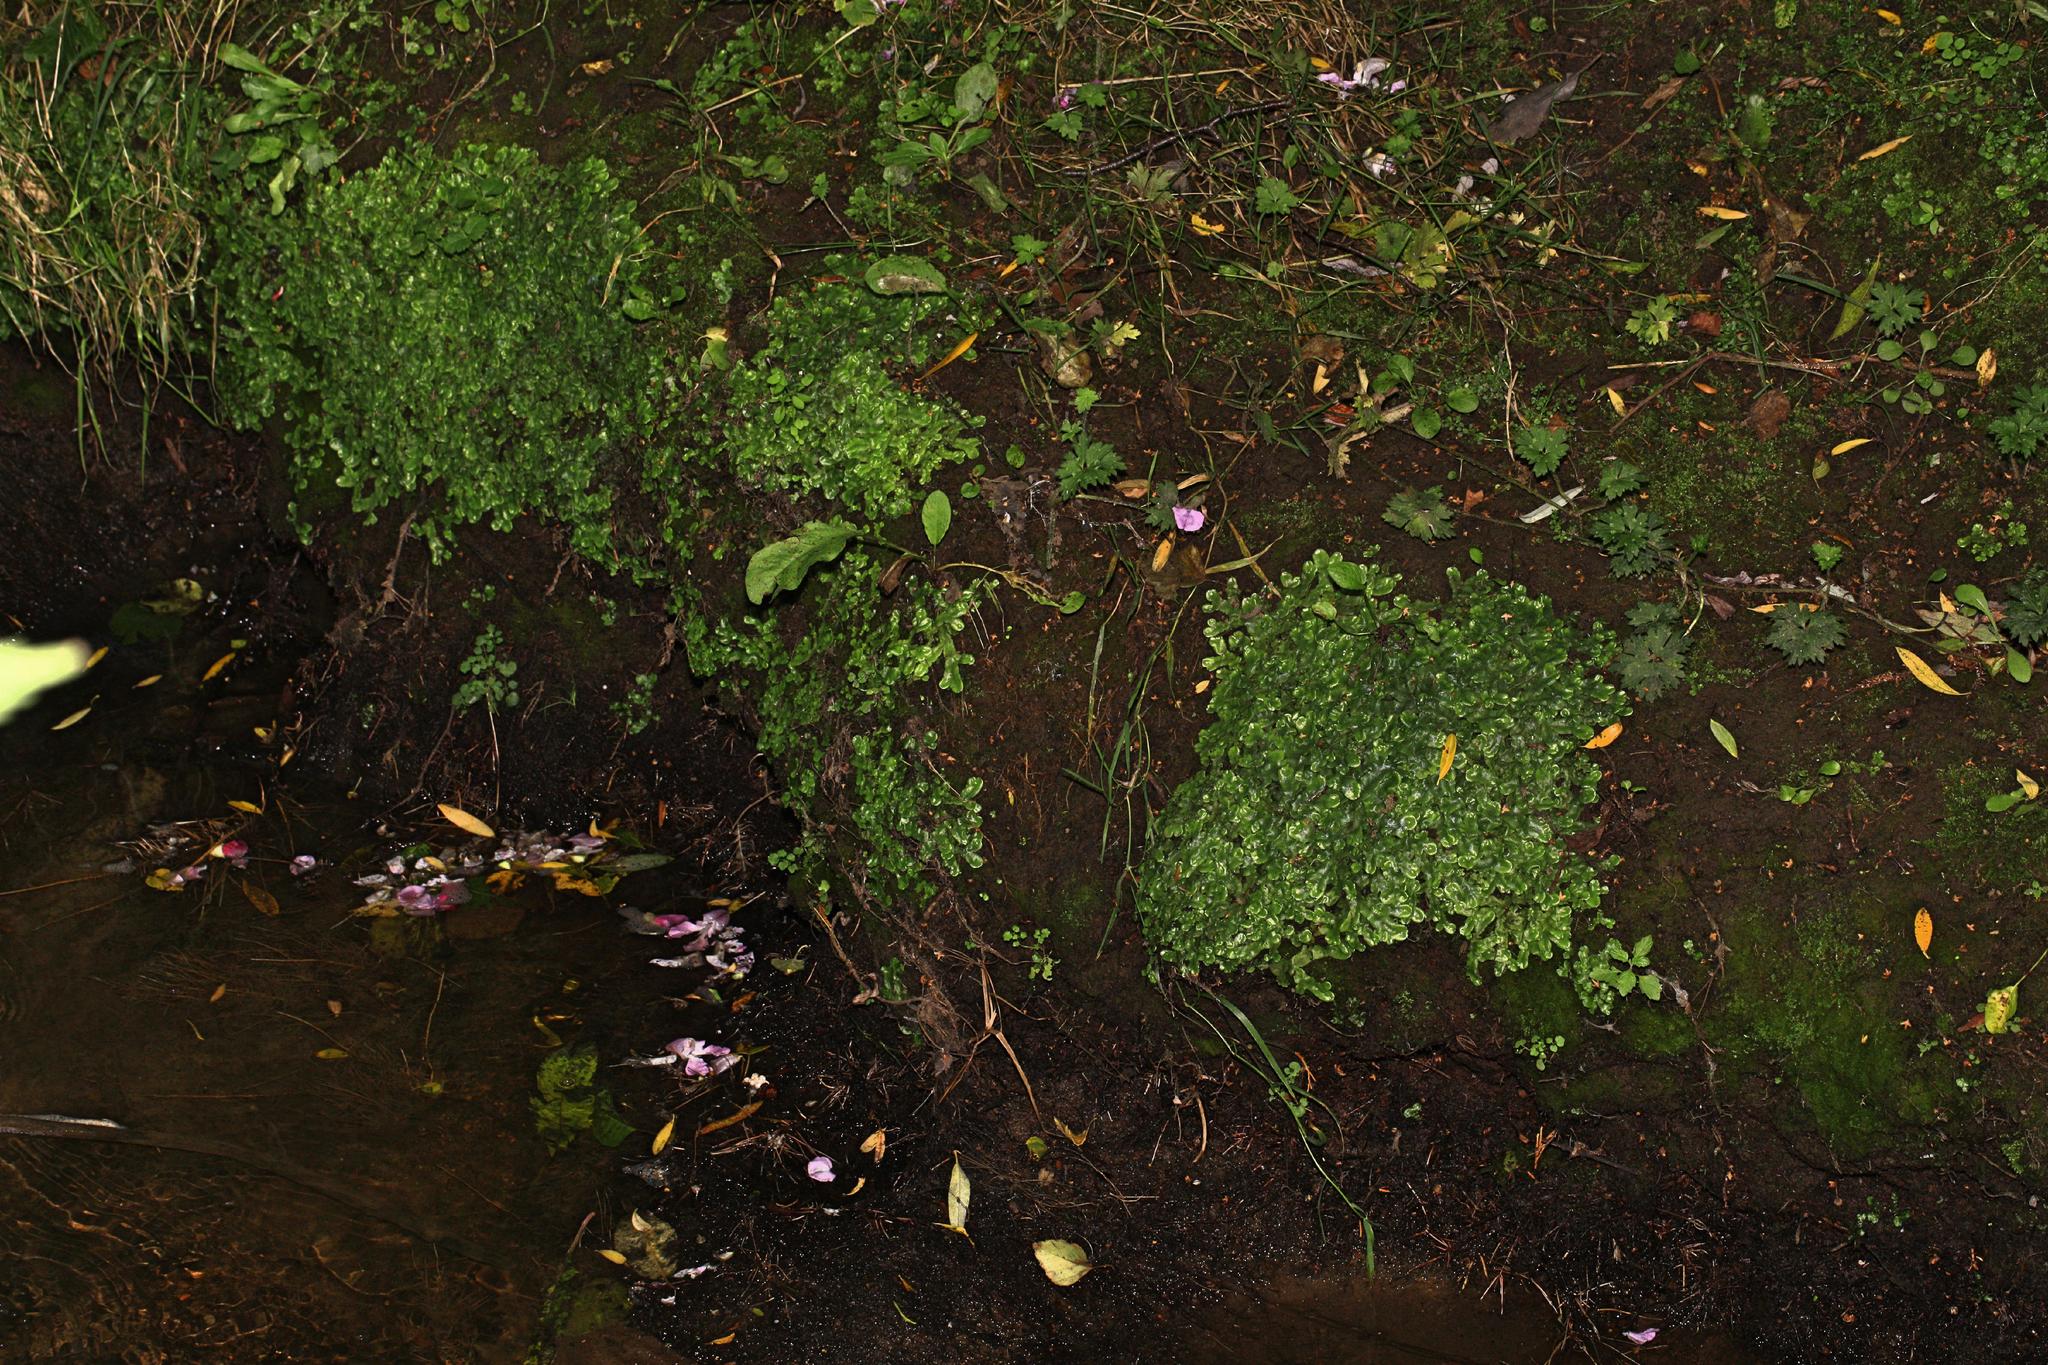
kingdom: Plantae
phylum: Marchantiophyta
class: Marchantiopsida
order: Marchantiales
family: Conocephalaceae
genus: Conocephalum
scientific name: Conocephalum conicum
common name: Great scented liverwort
